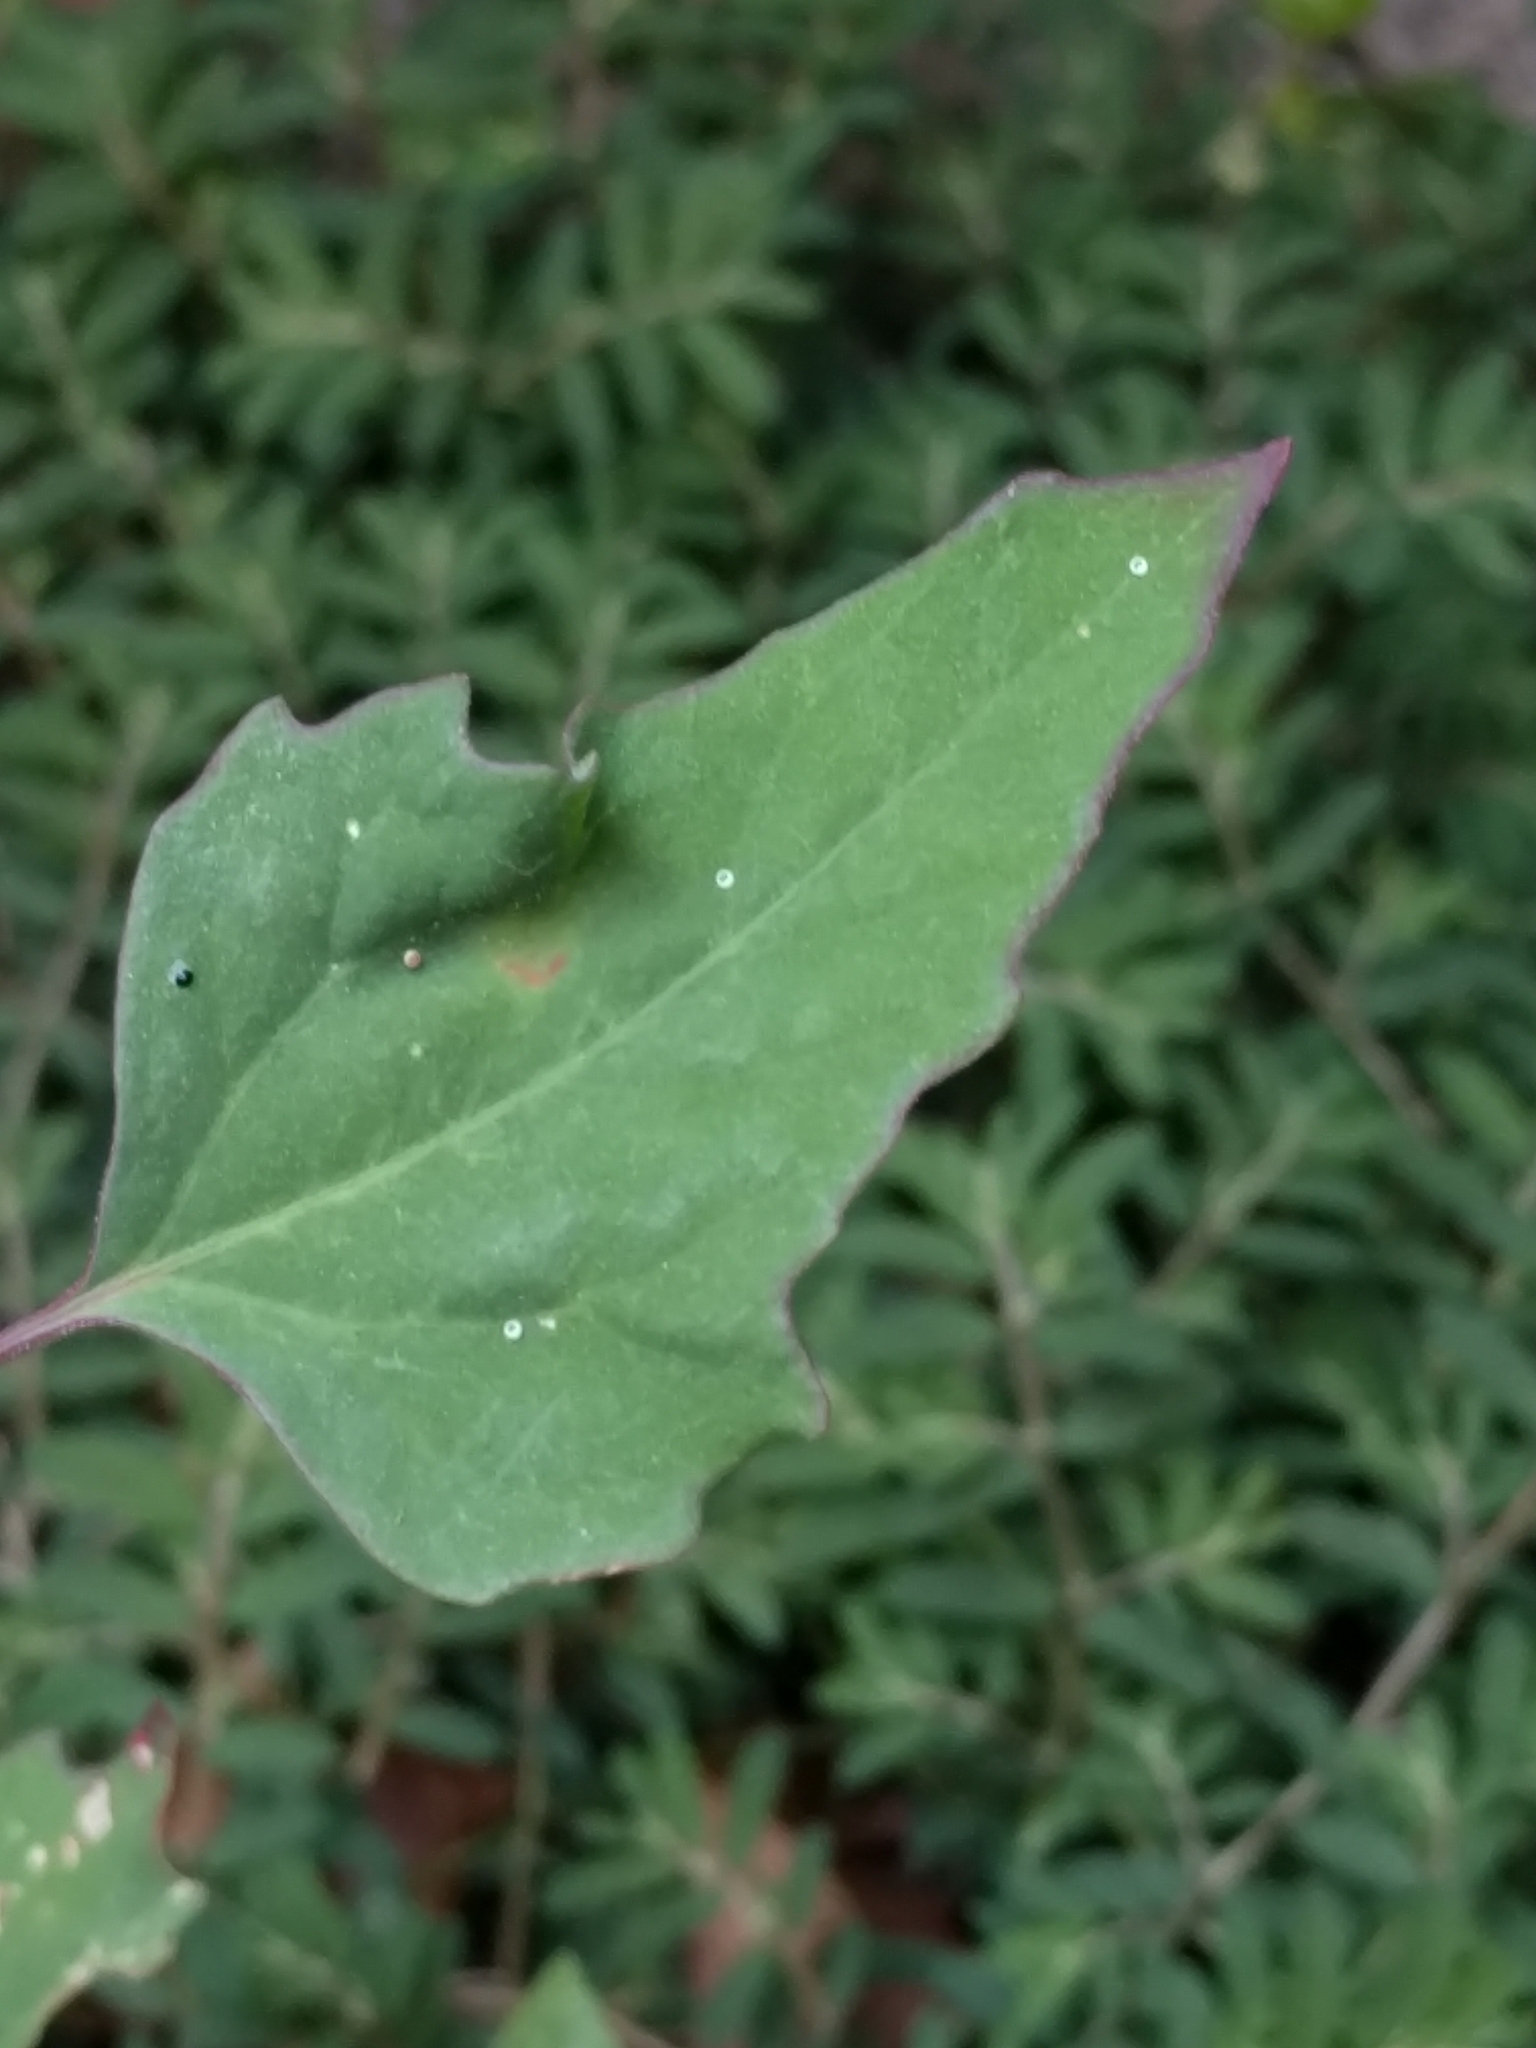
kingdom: Plantae
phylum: Tracheophyta
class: Magnoliopsida
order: Caryophyllales
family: Amaranthaceae
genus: Chenopodium
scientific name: Chenopodium album
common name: Fat-hen
